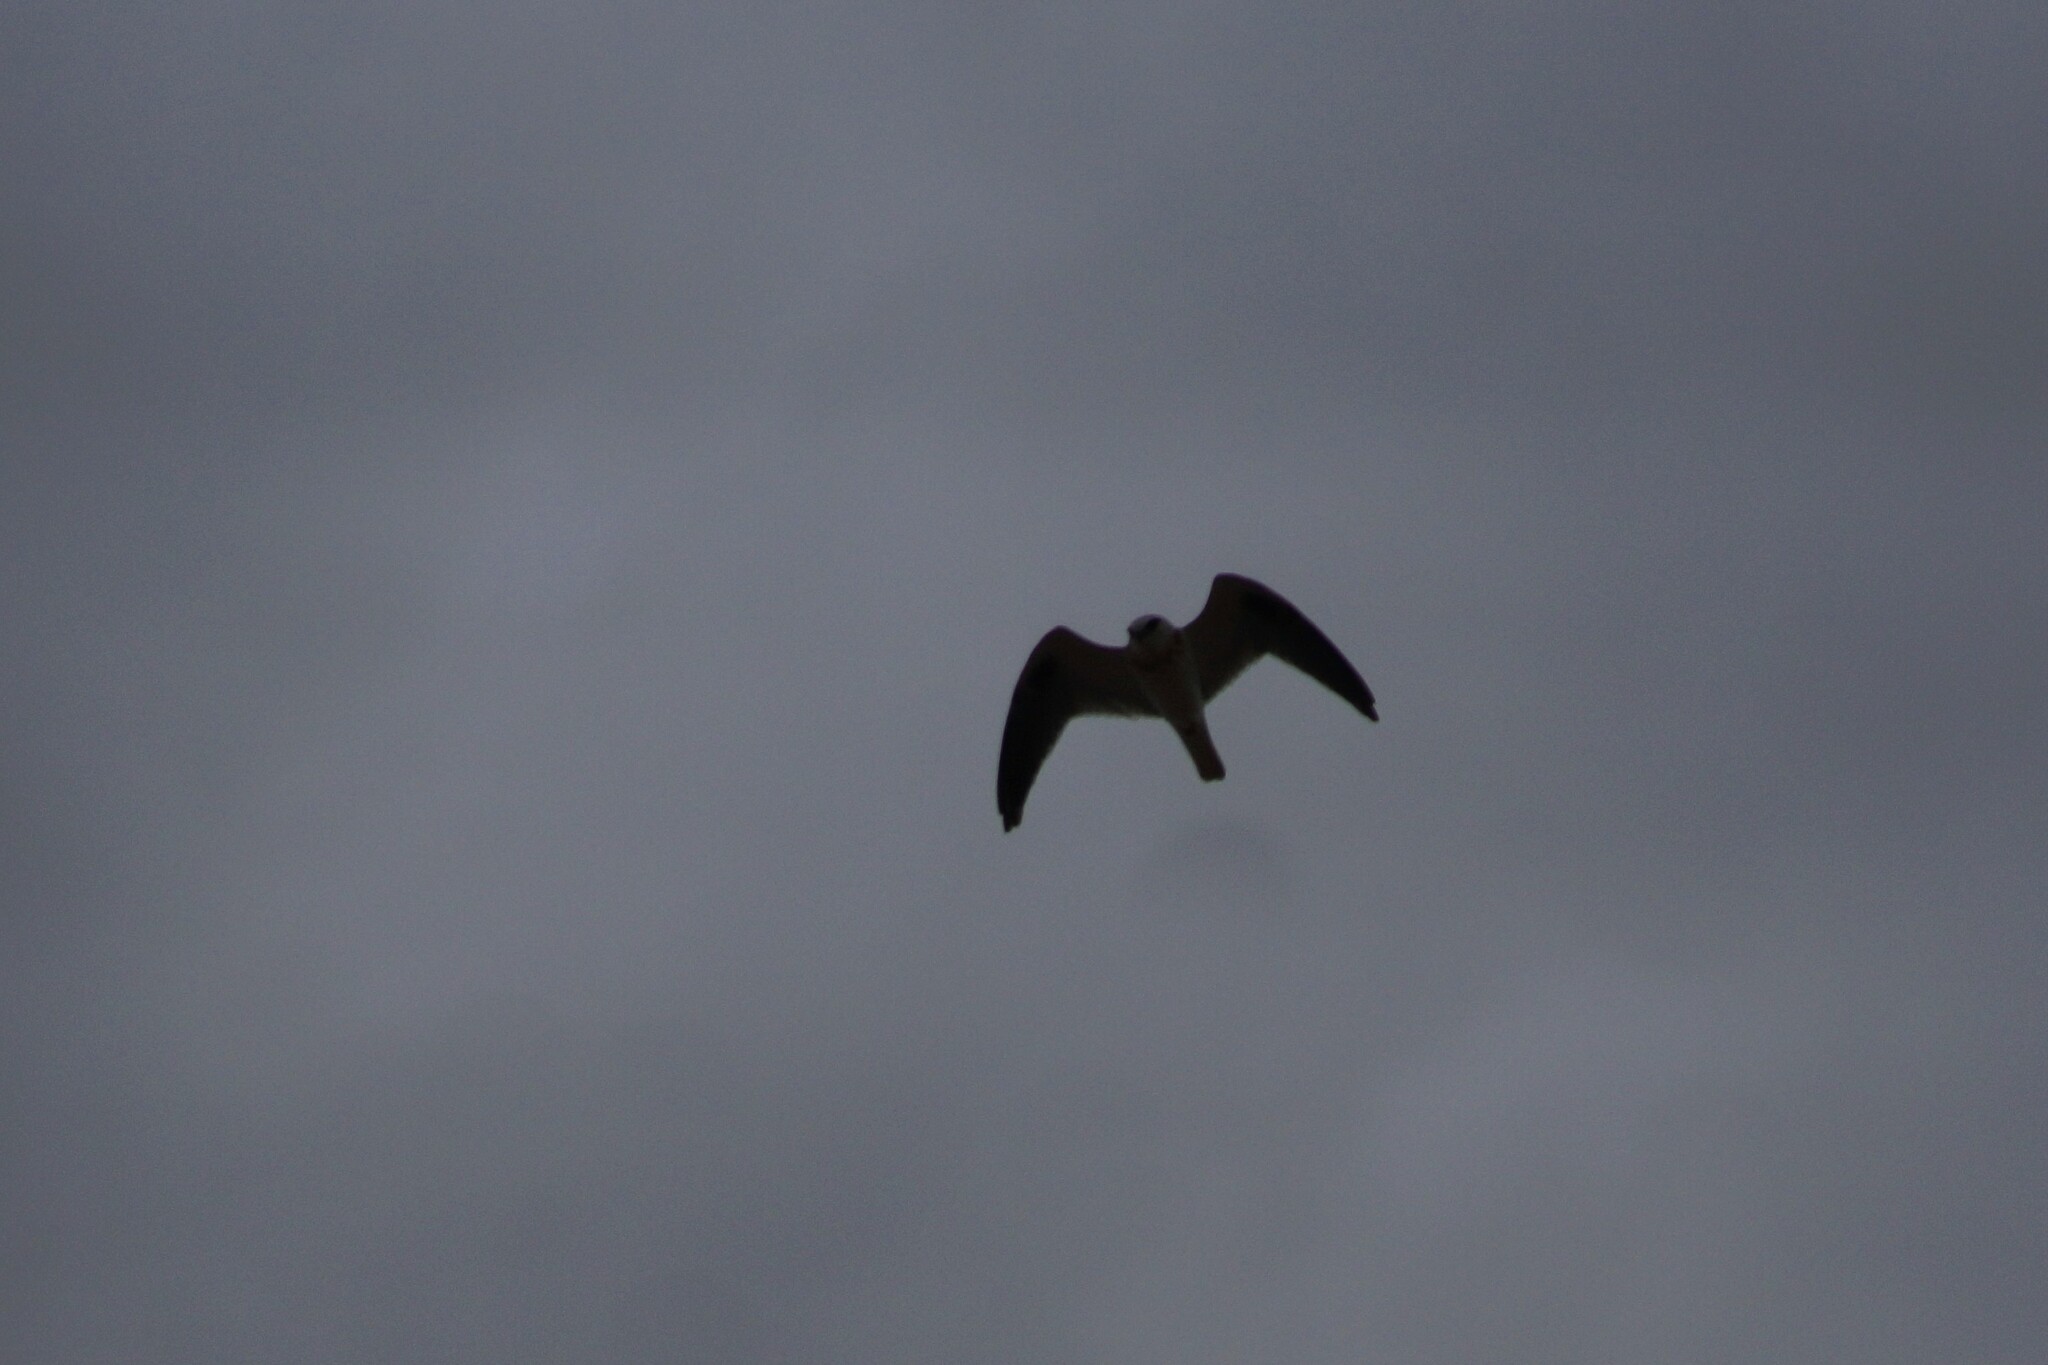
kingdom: Animalia
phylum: Chordata
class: Aves
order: Accipitriformes
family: Accipitridae
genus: Elanus
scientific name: Elanus axillaris
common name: Black-shouldered kite
